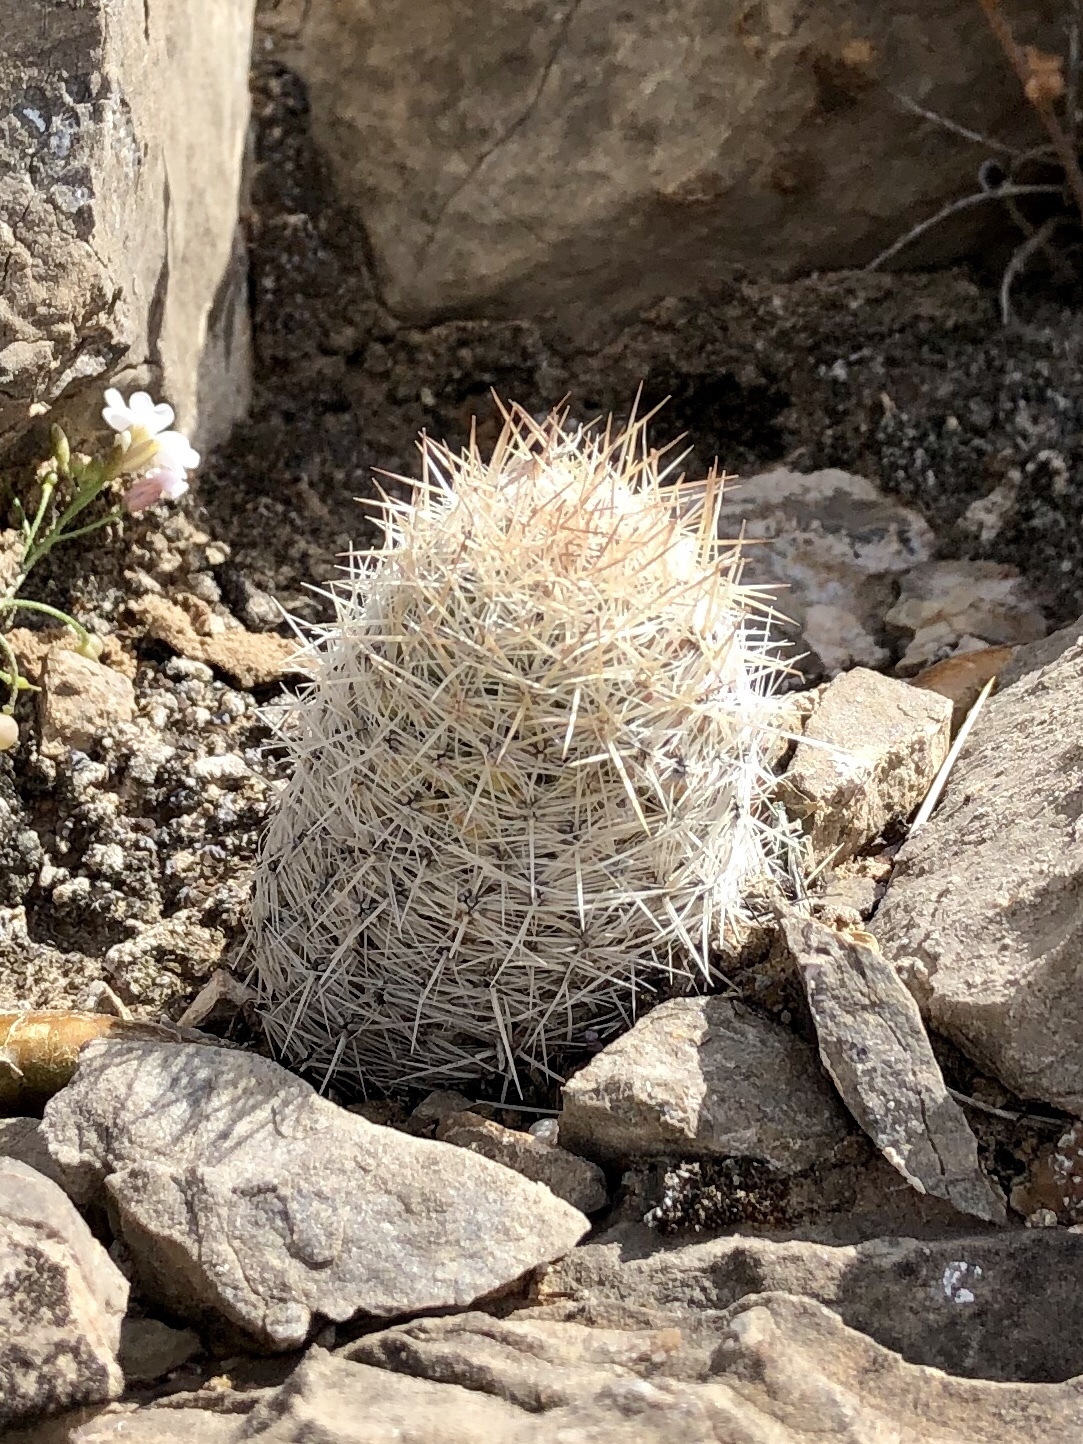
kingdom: Plantae
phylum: Tracheophyta
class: Magnoliopsida
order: Caryophyllales
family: Cactaceae
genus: Pelecyphora
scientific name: Pelecyphora tuberculosa
